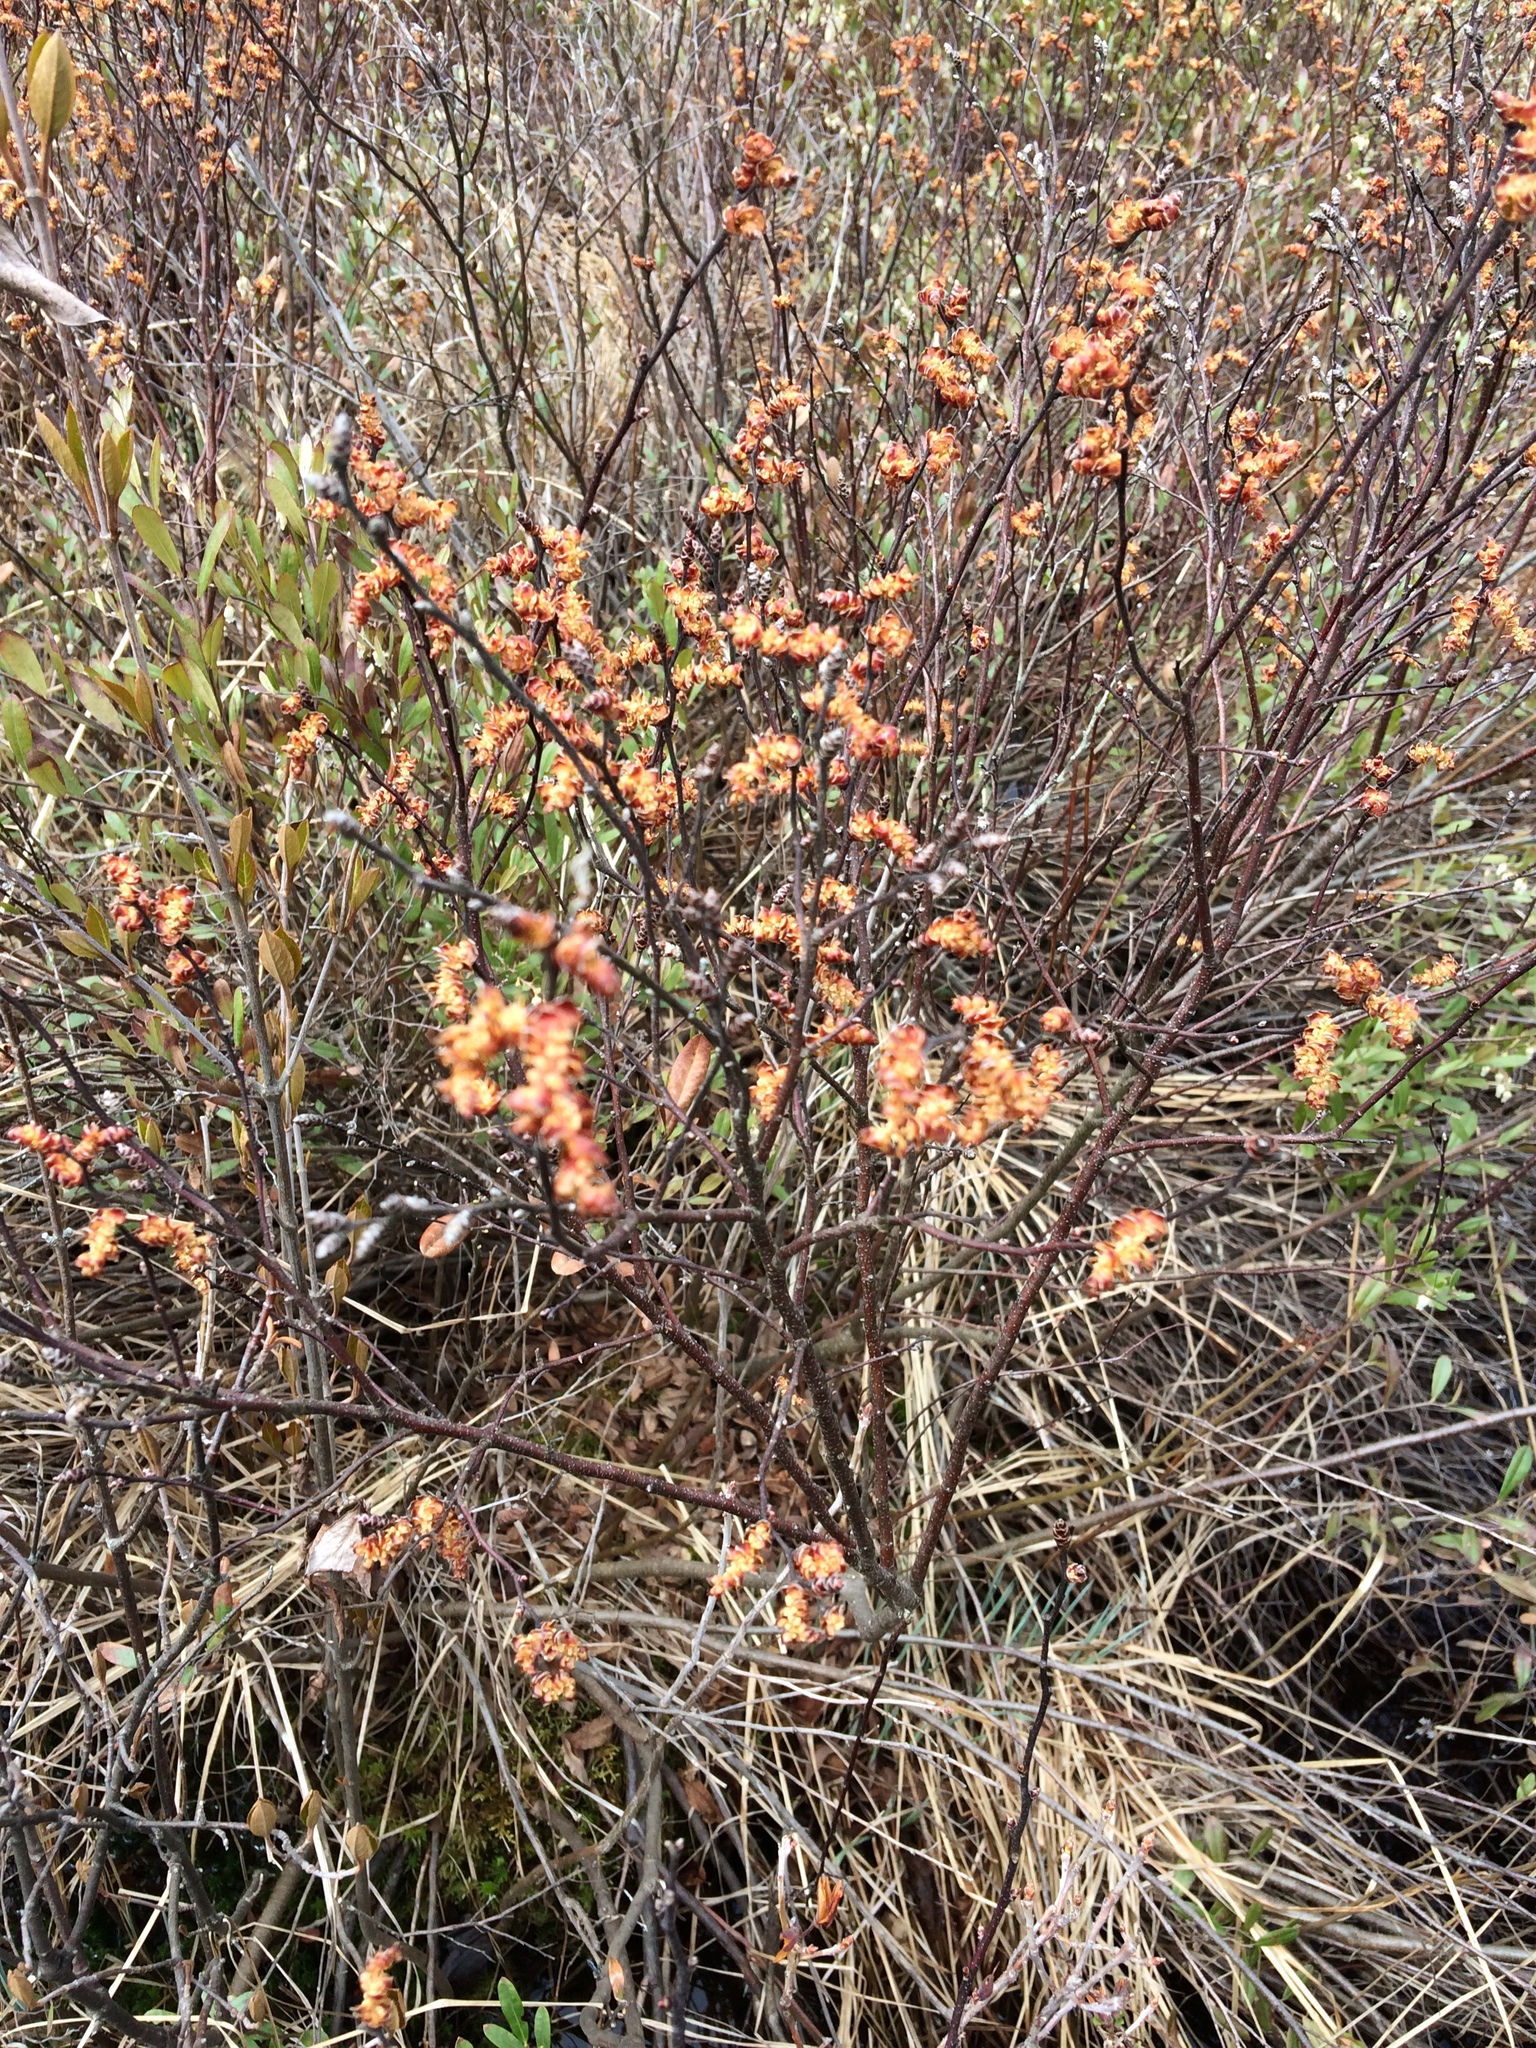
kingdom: Plantae
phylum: Tracheophyta
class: Magnoliopsida
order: Fagales
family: Myricaceae
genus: Myrica
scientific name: Myrica gale
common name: Sweet gale
